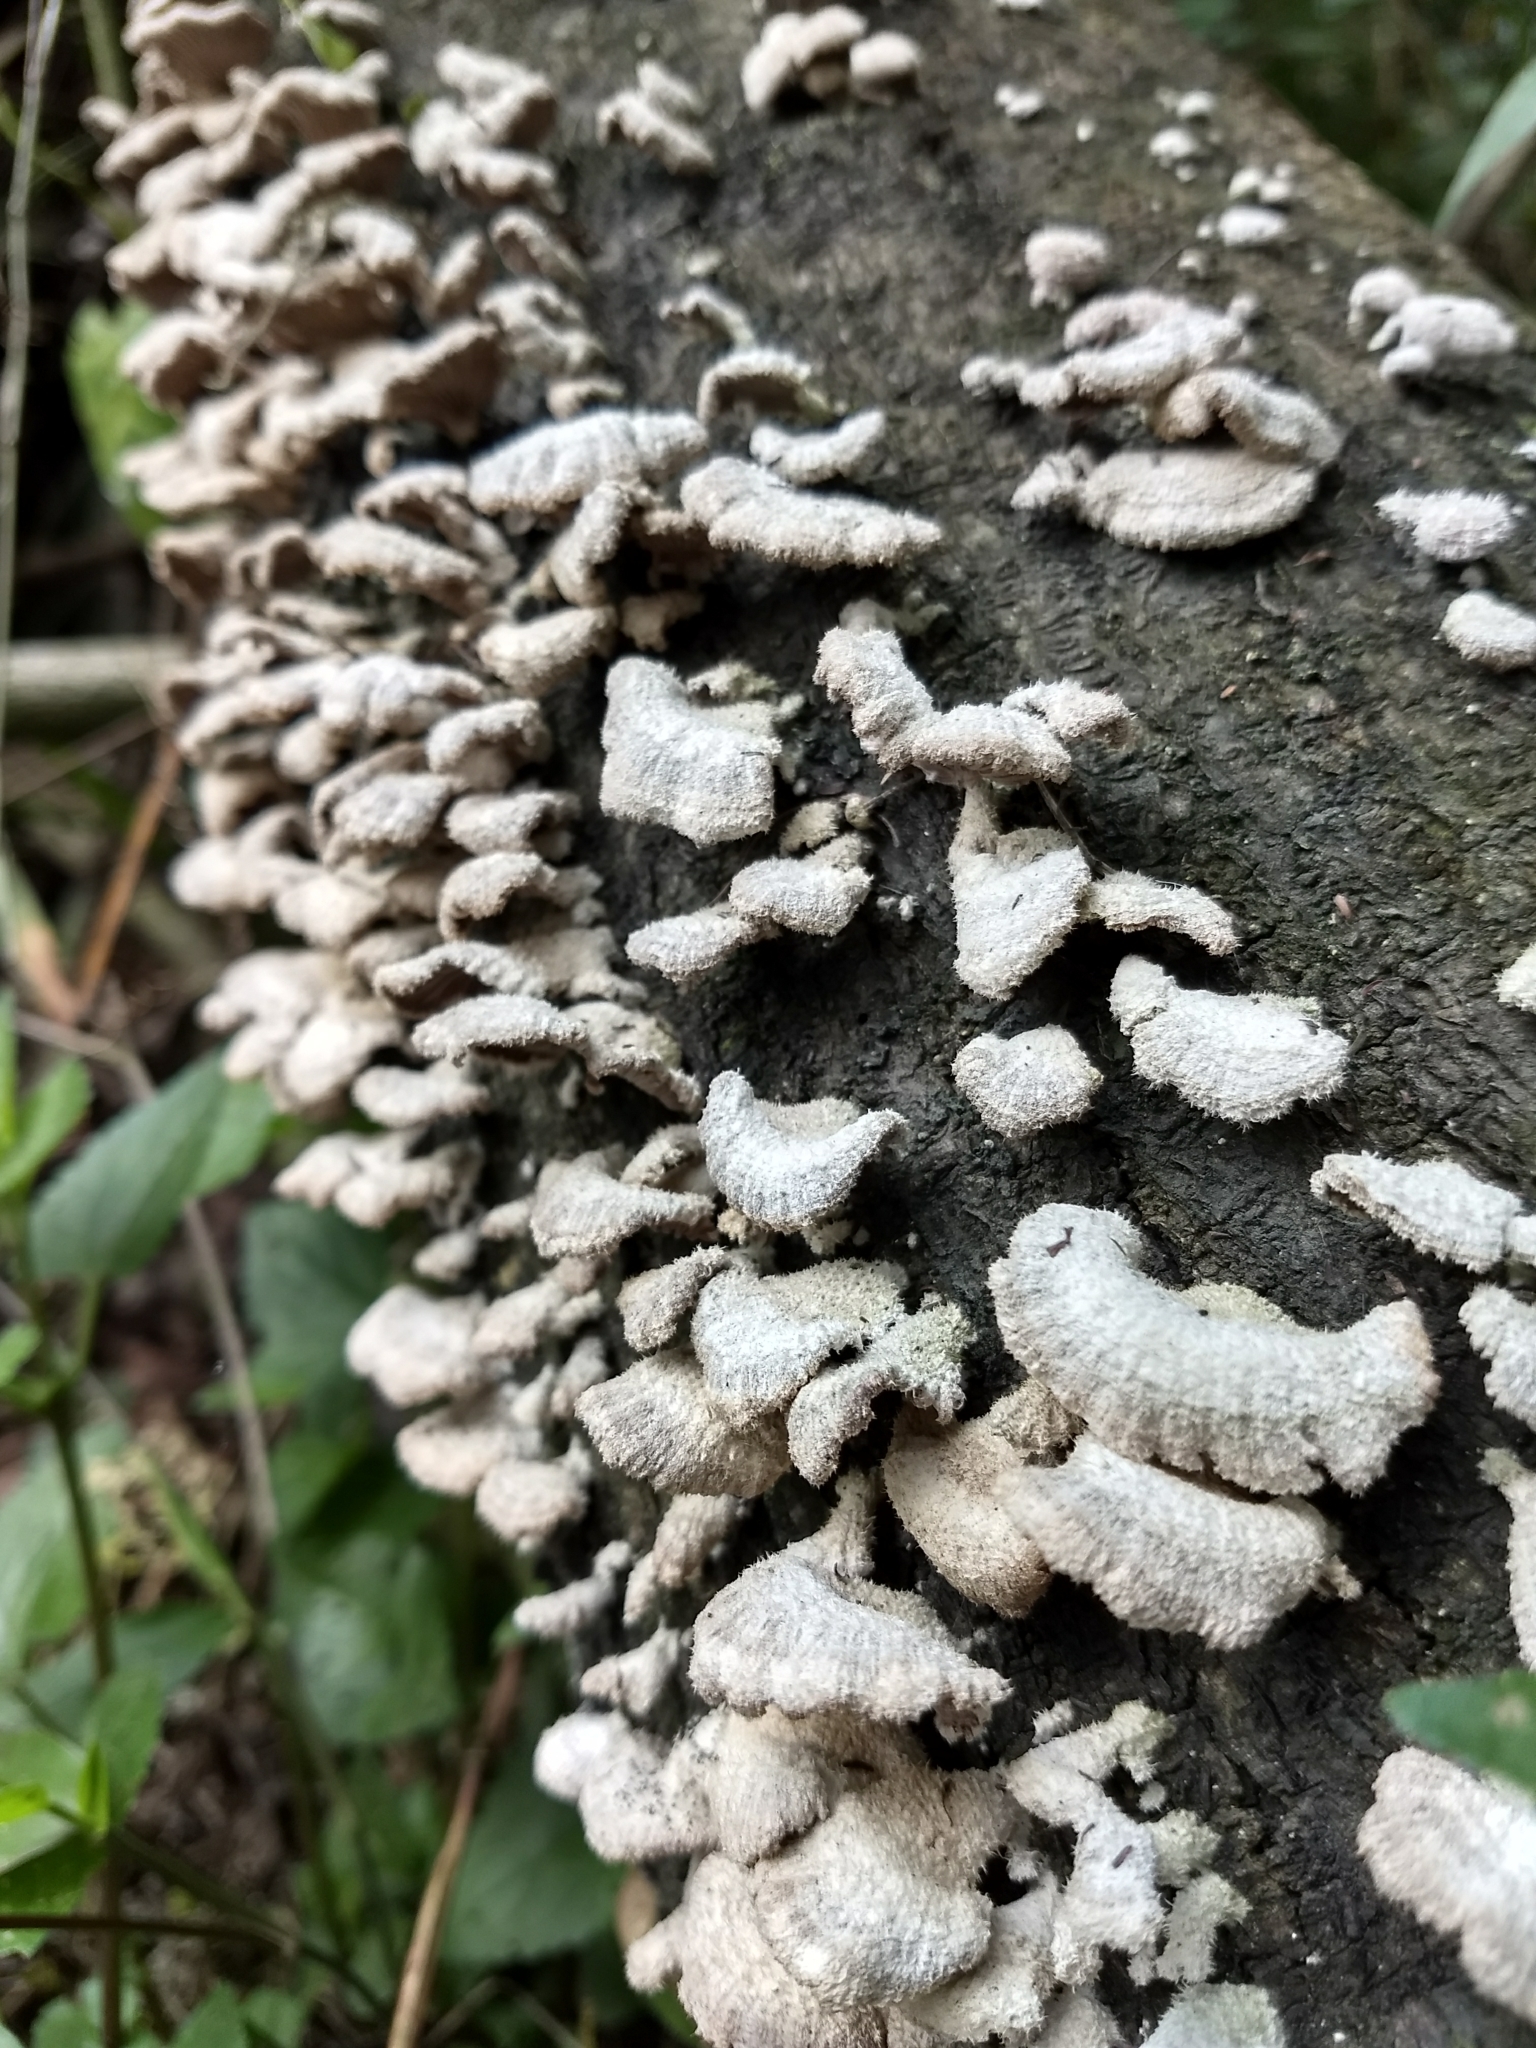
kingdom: Fungi
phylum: Basidiomycota
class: Agaricomycetes
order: Agaricales
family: Schizophyllaceae
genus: Schizophyllum
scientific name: Schizophyllum commune
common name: Common porecrust
